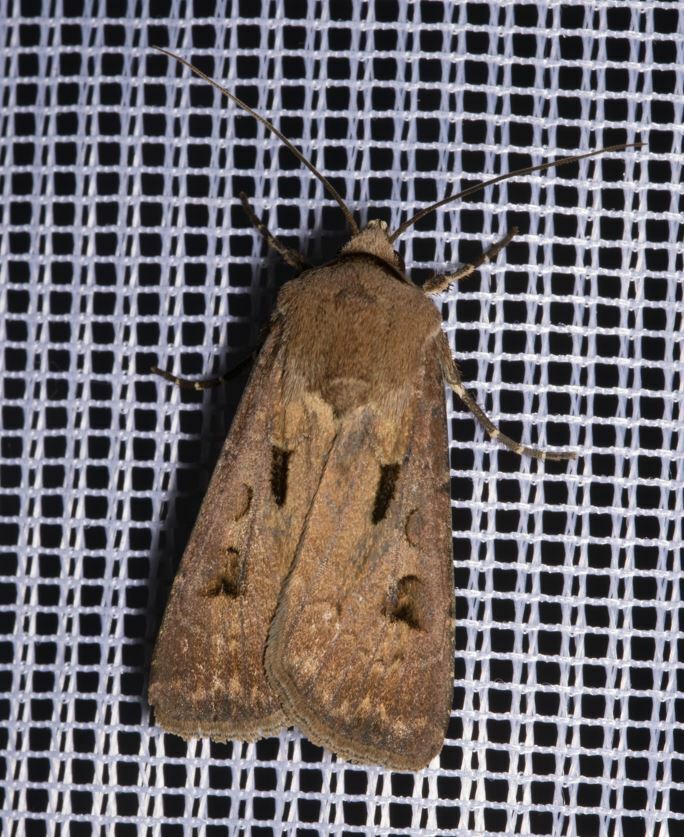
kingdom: Animalia
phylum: Arthropoda
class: Insecta
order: Lepidoptera
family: Noctuidae
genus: Agrotis
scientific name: Agrotis exclamationis
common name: Heart and dart
